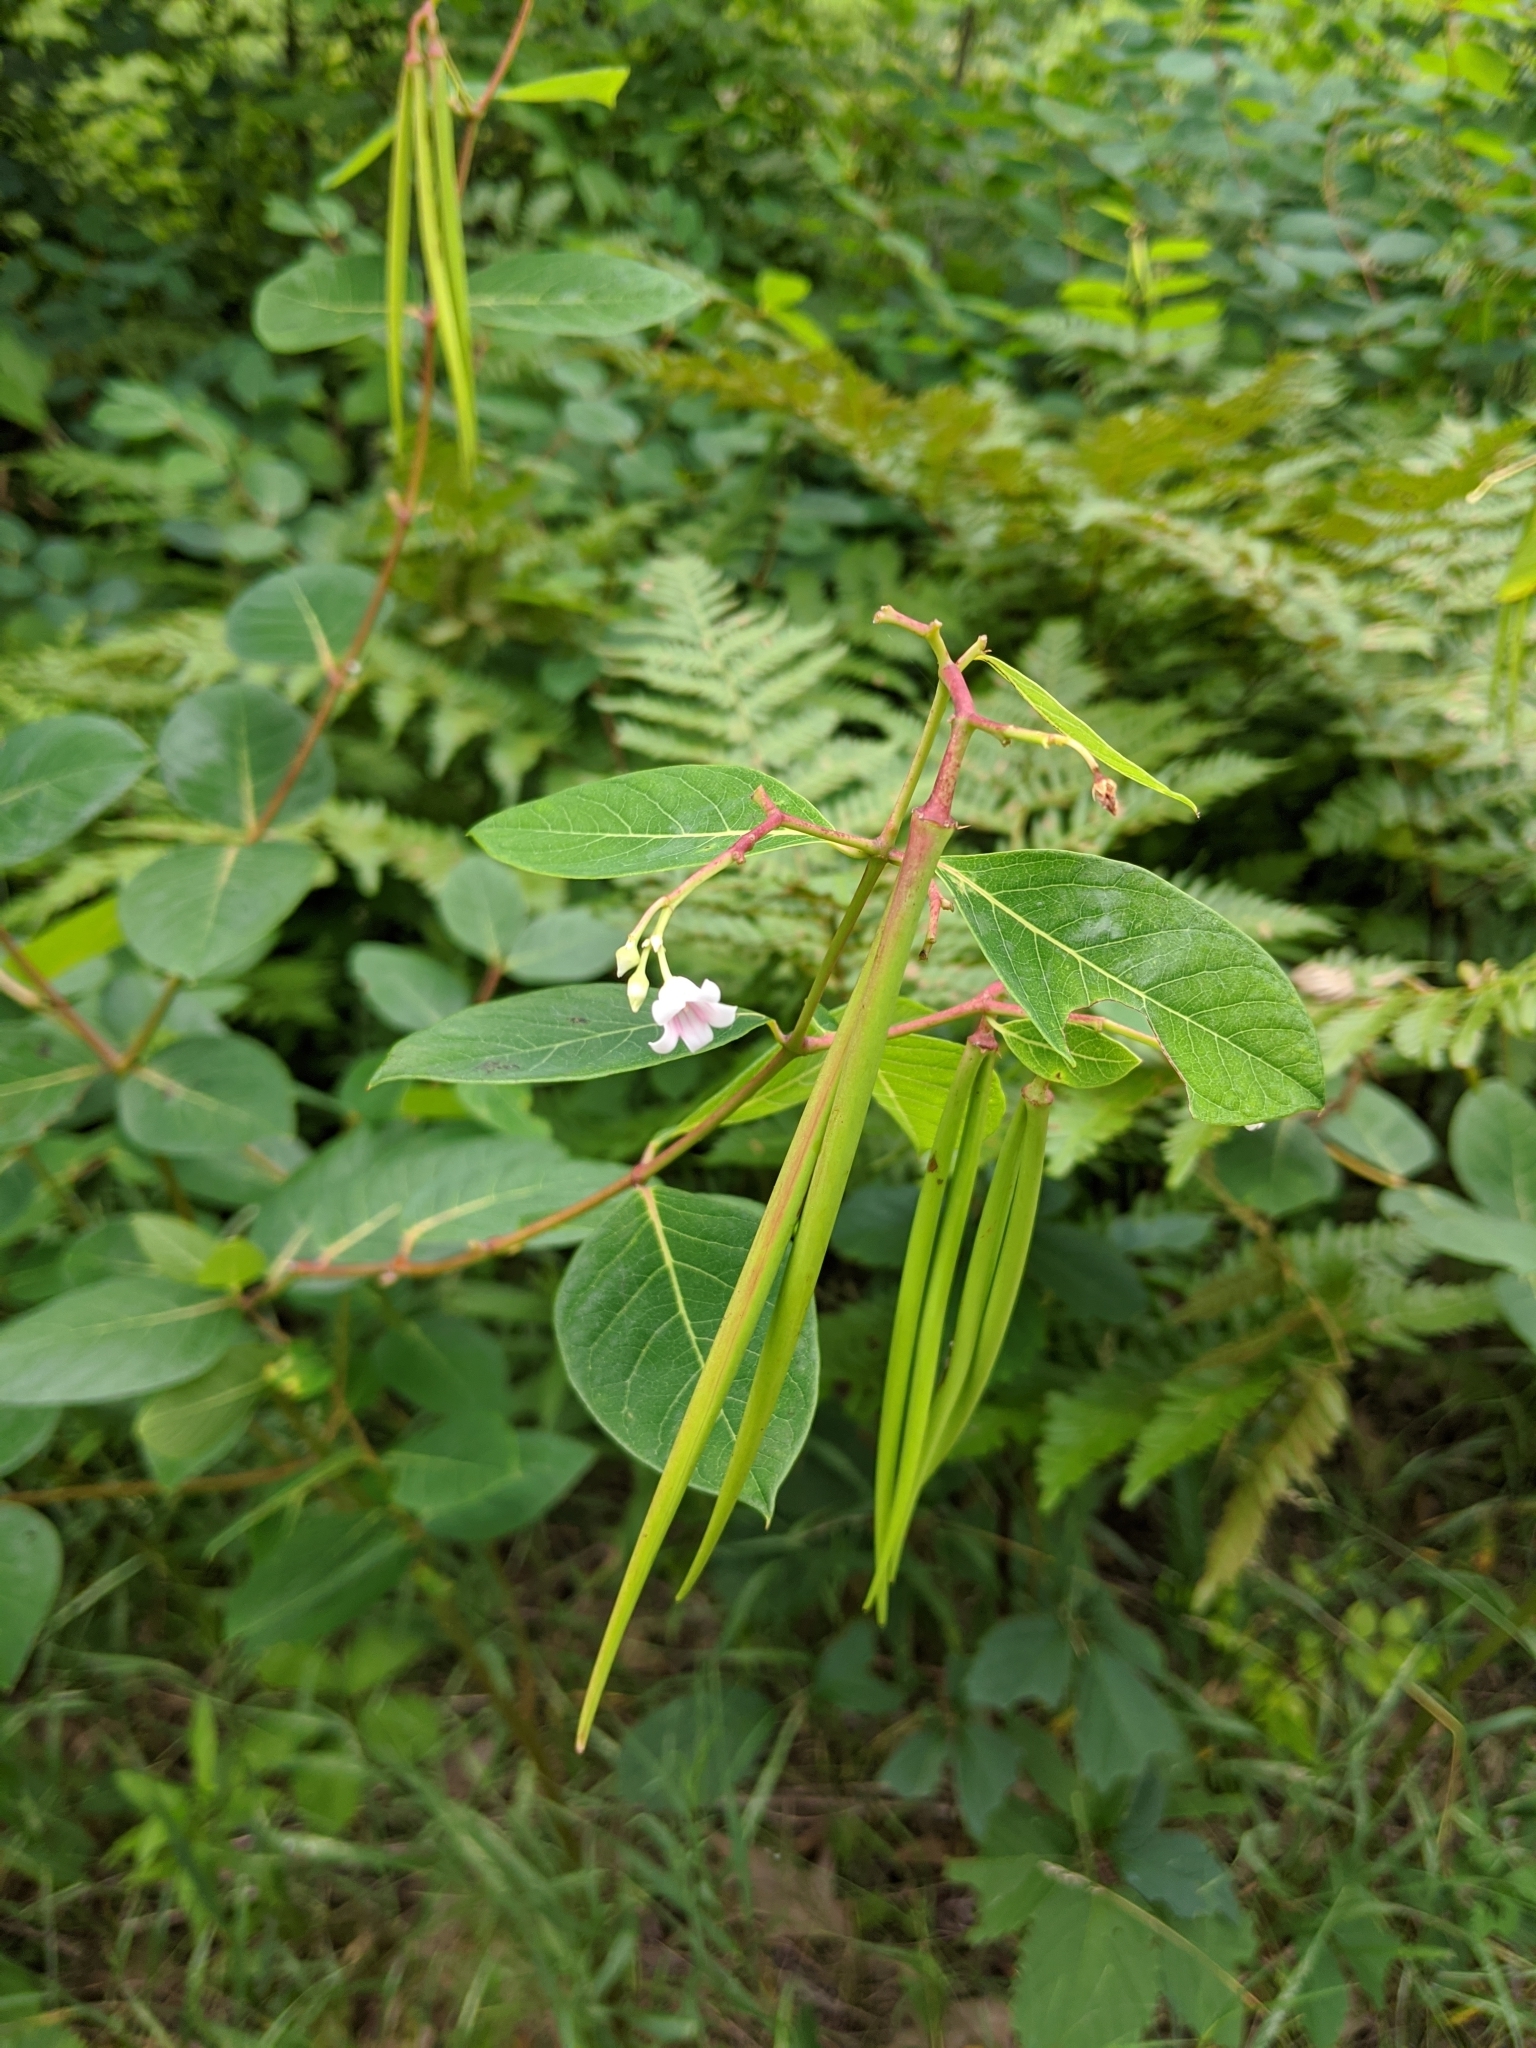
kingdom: Plantae
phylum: Tracheophyta
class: Magnoliopsida
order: Gentianales
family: Apocynaceae
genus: Apocynum
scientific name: Apocynum androsaemifolium
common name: Spreading dogbane
